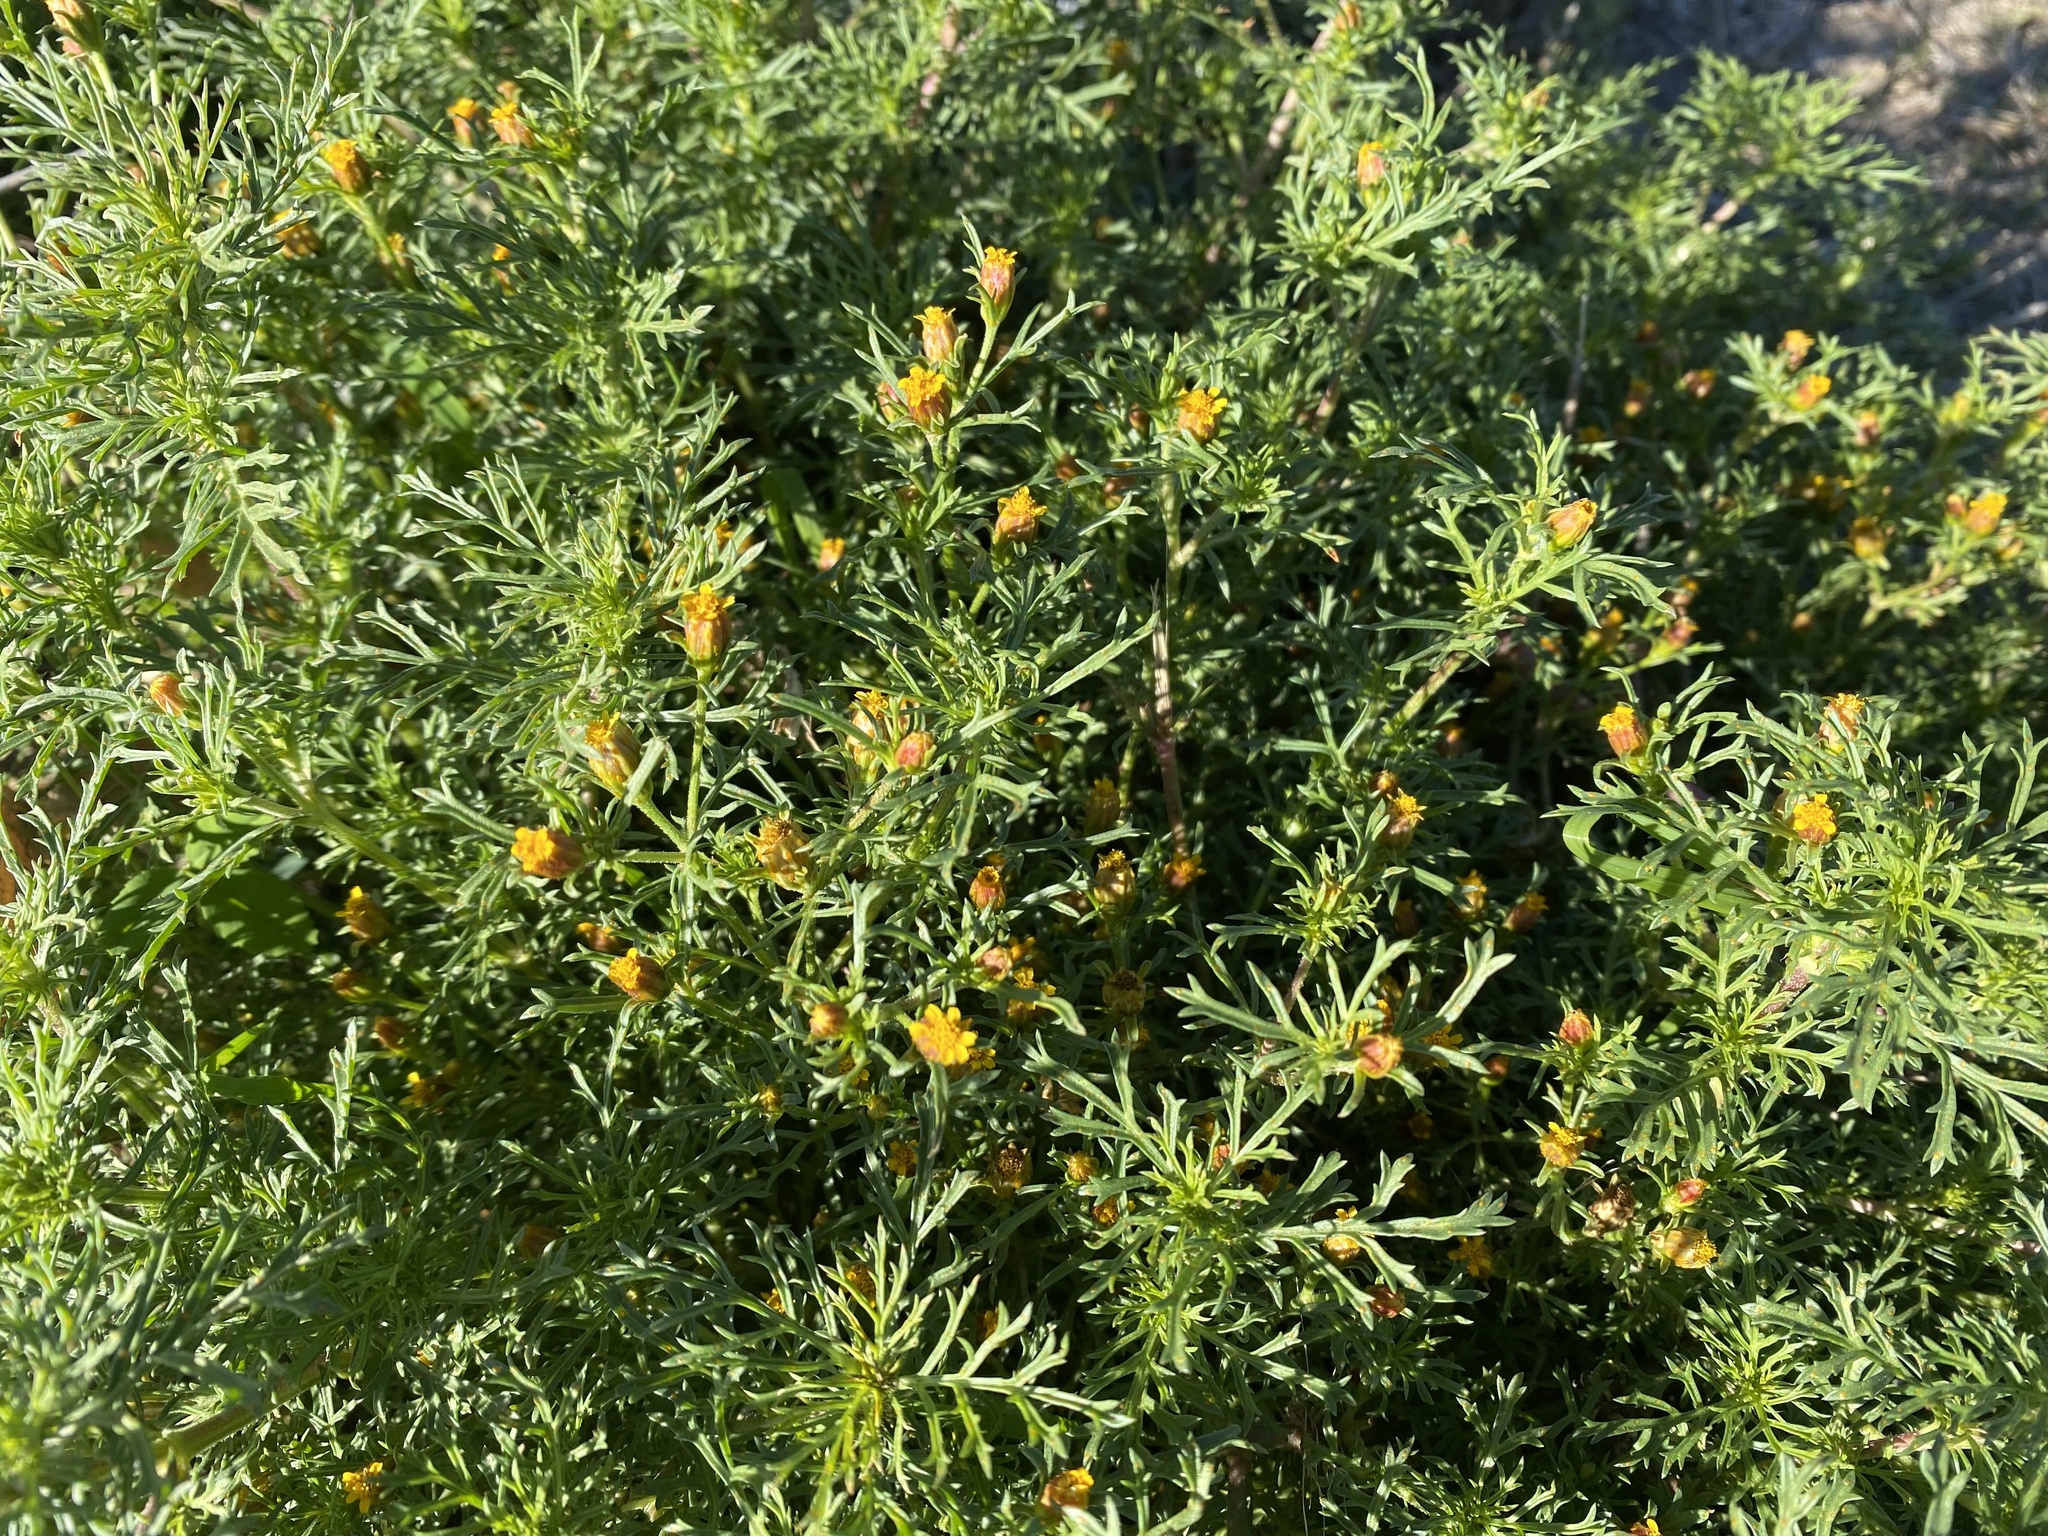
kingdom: Plantae
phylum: Tracheophyta
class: Magnoliopsida
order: Asterales
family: Asteraceae
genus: Dyssodia
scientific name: Dyssodia papposa
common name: Dogweed
